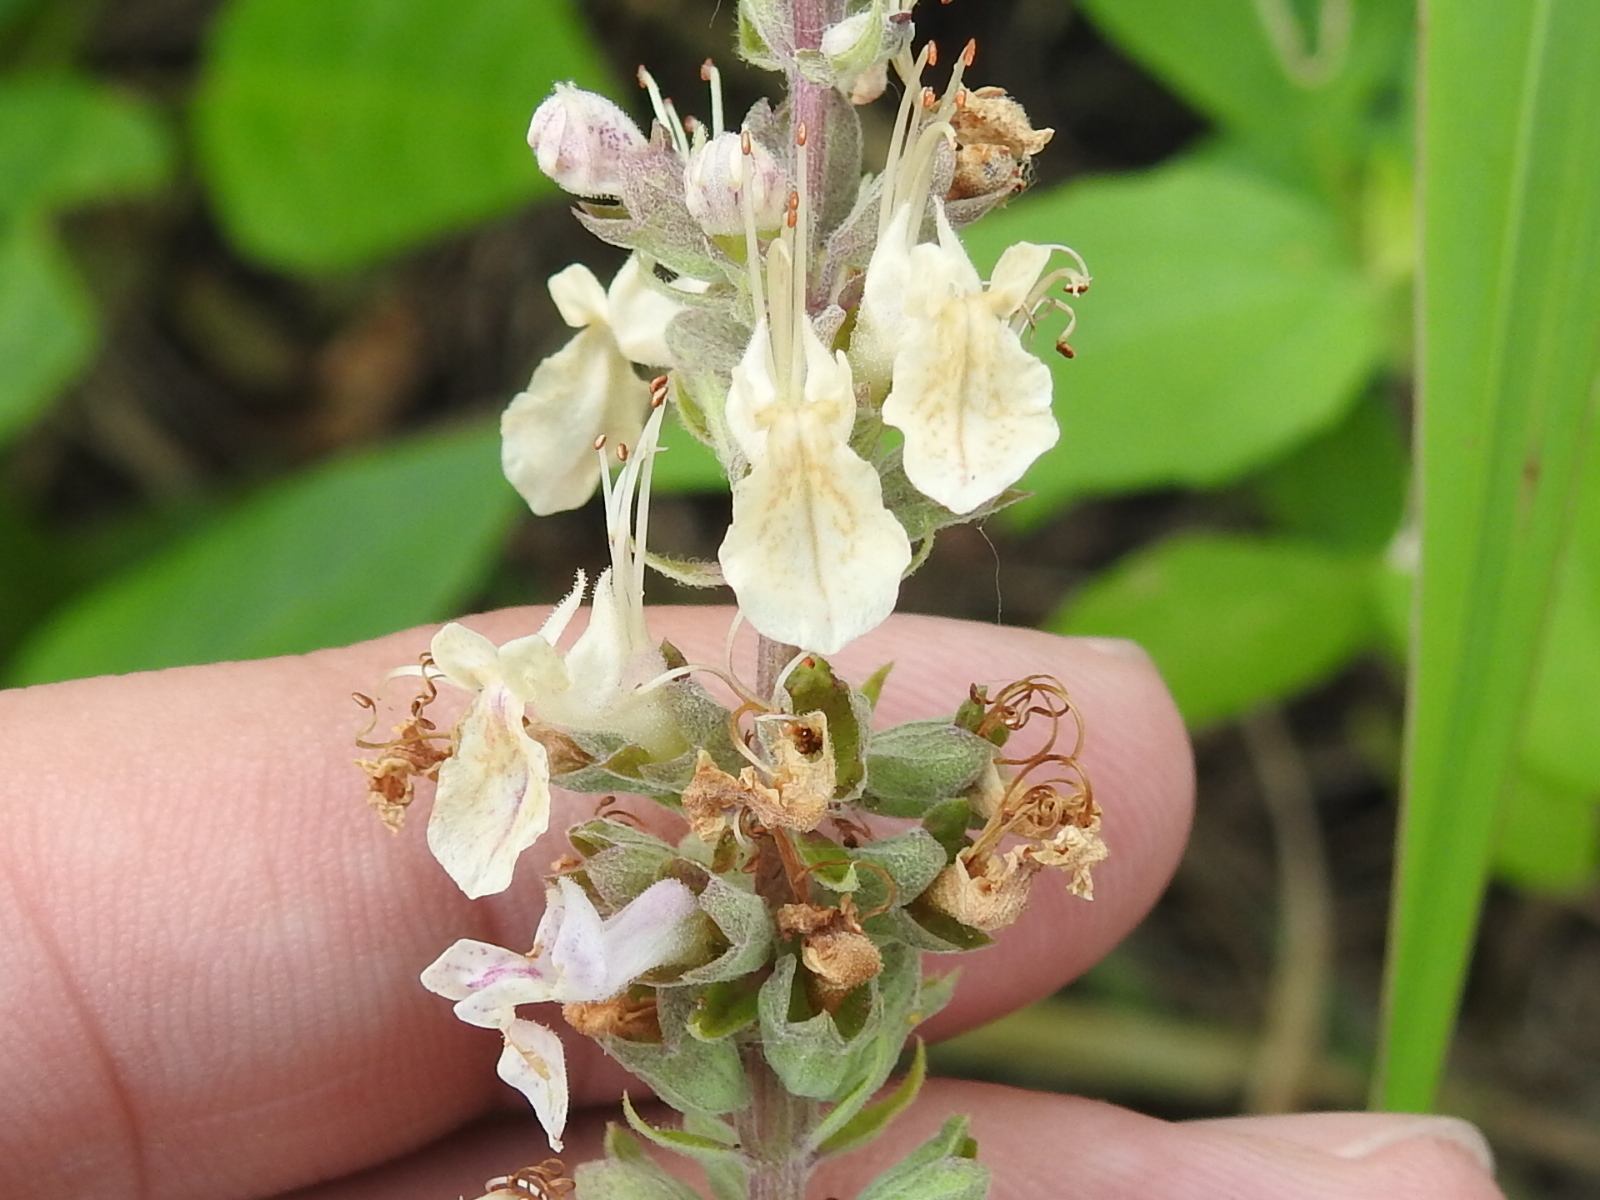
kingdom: Plantae
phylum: Tracheophyta
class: Magnoliopsida
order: Lamiales
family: Lamiaceae
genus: Teucrium
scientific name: Teucrium canadense
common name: American germander
